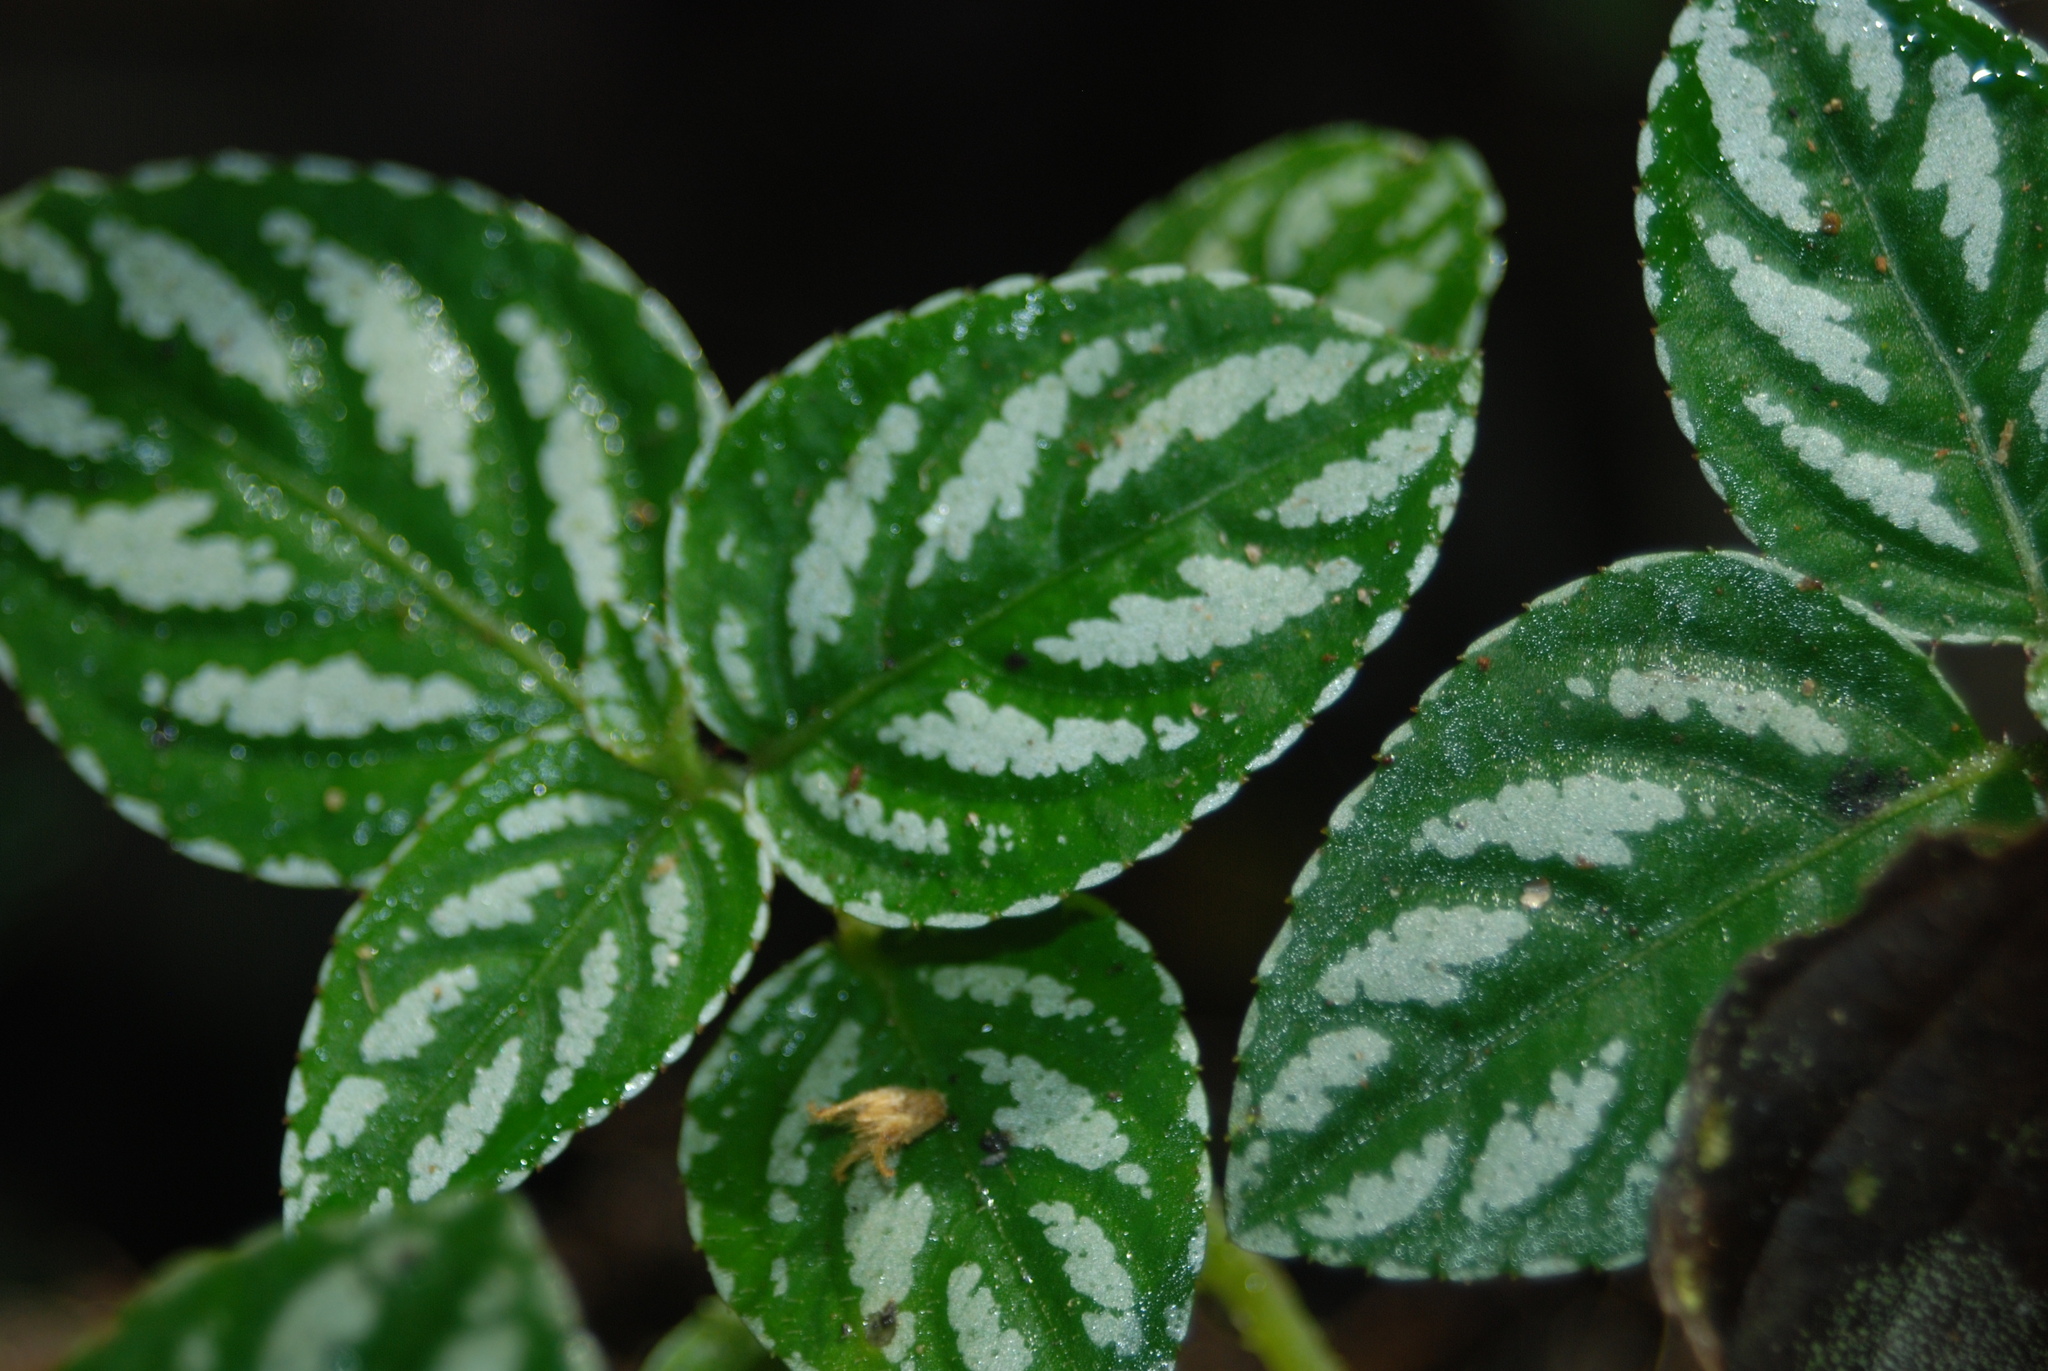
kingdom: Plantae
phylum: Tracheophyta
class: Magnoliopsida
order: Ericales
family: Balsaminaceae
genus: Impatiens
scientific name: Impatiens marianae
